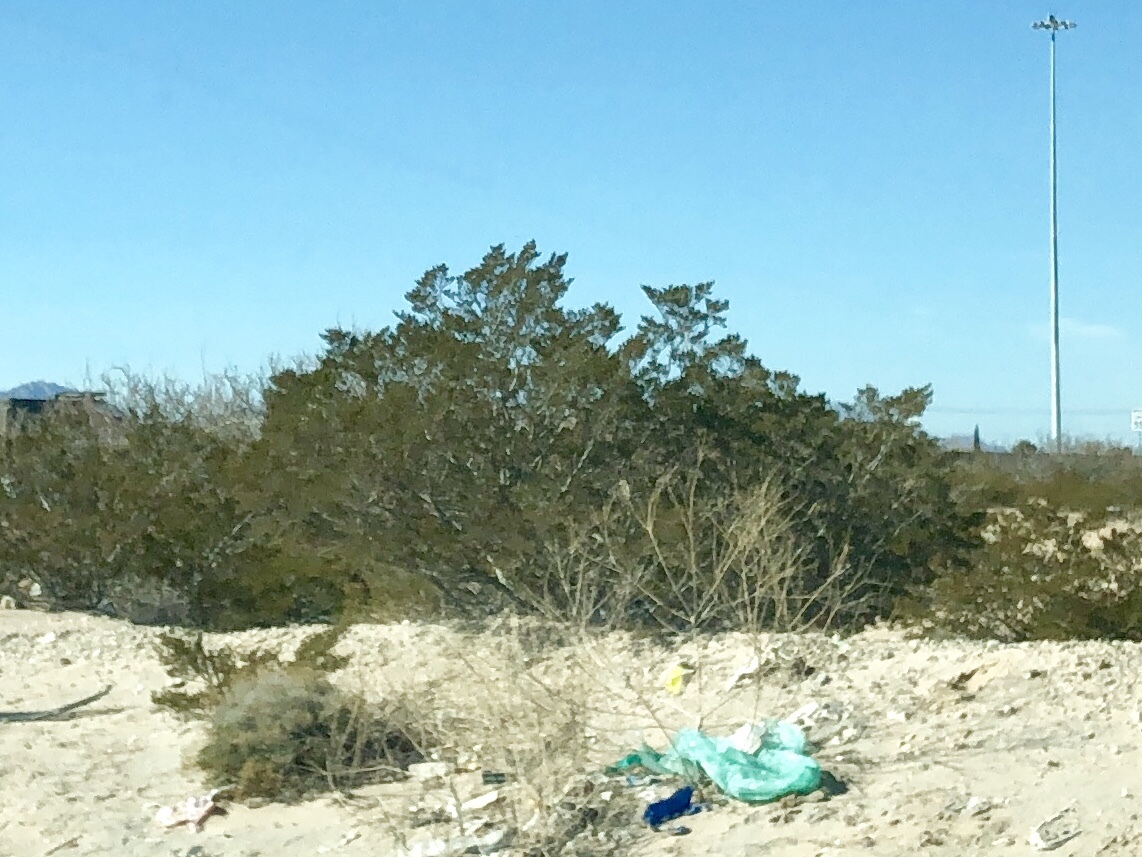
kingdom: Plantae
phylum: Tracheophyta
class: Magnoliopsida
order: Zygophyllales
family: Zygophyllaceae
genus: Larrea
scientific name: Larrea tridentata
